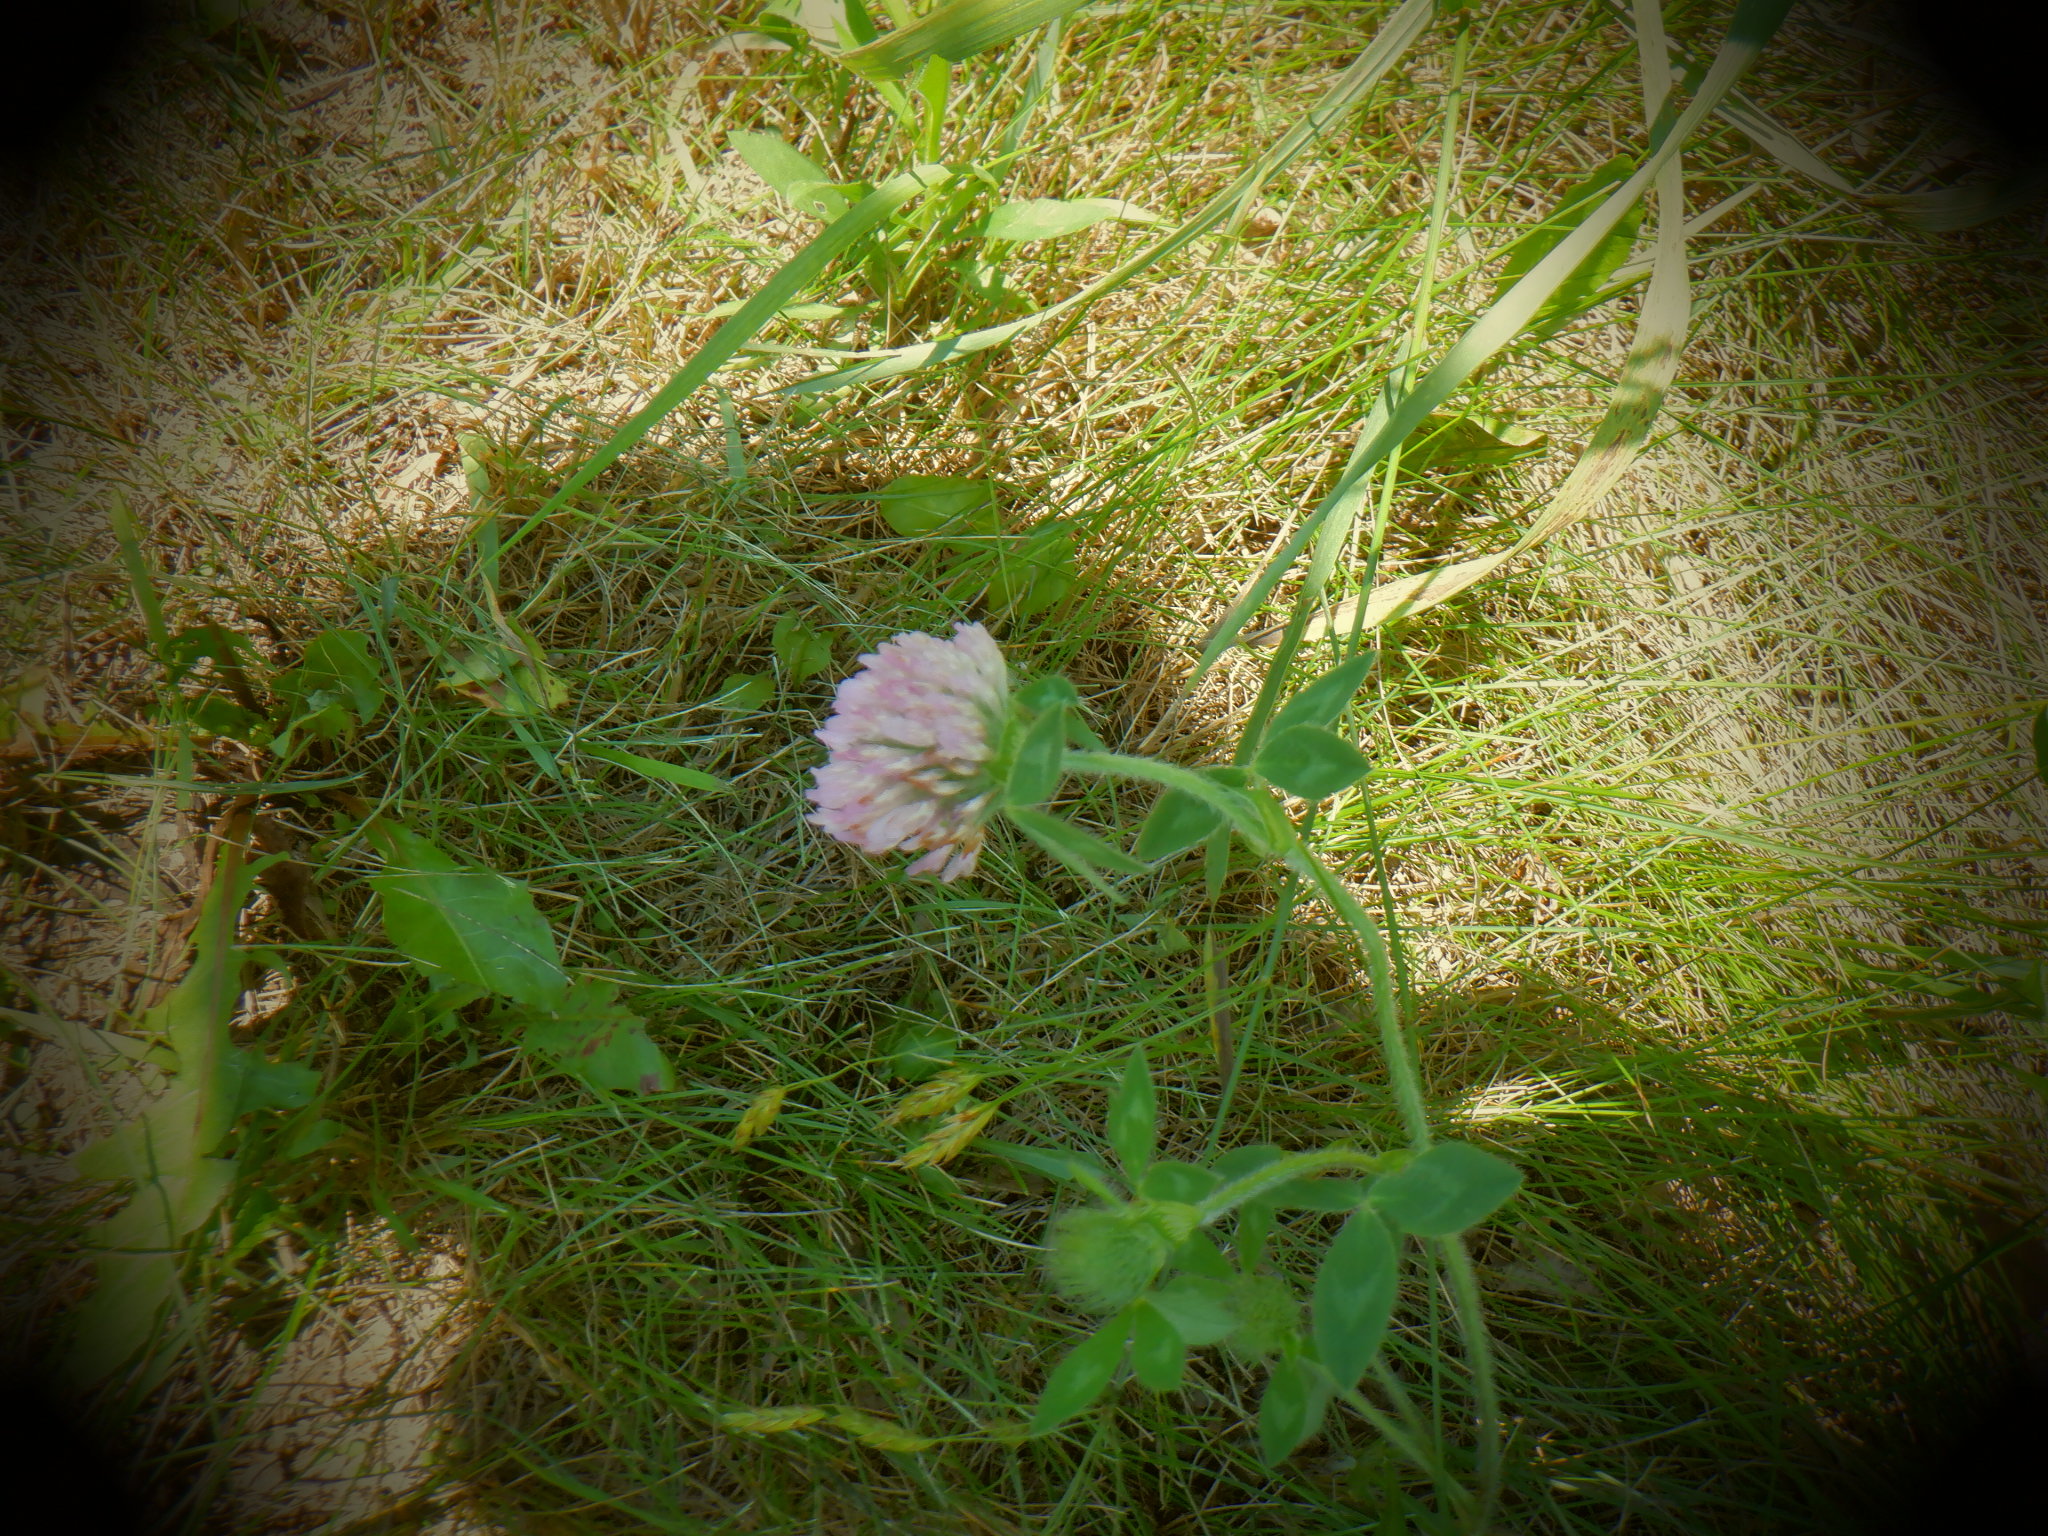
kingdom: Plantae
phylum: Tracheophyta
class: Magnoliopsida
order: Fabales
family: Fabaceae
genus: Trifolium
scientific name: Trifolium pratense
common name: Red clover
